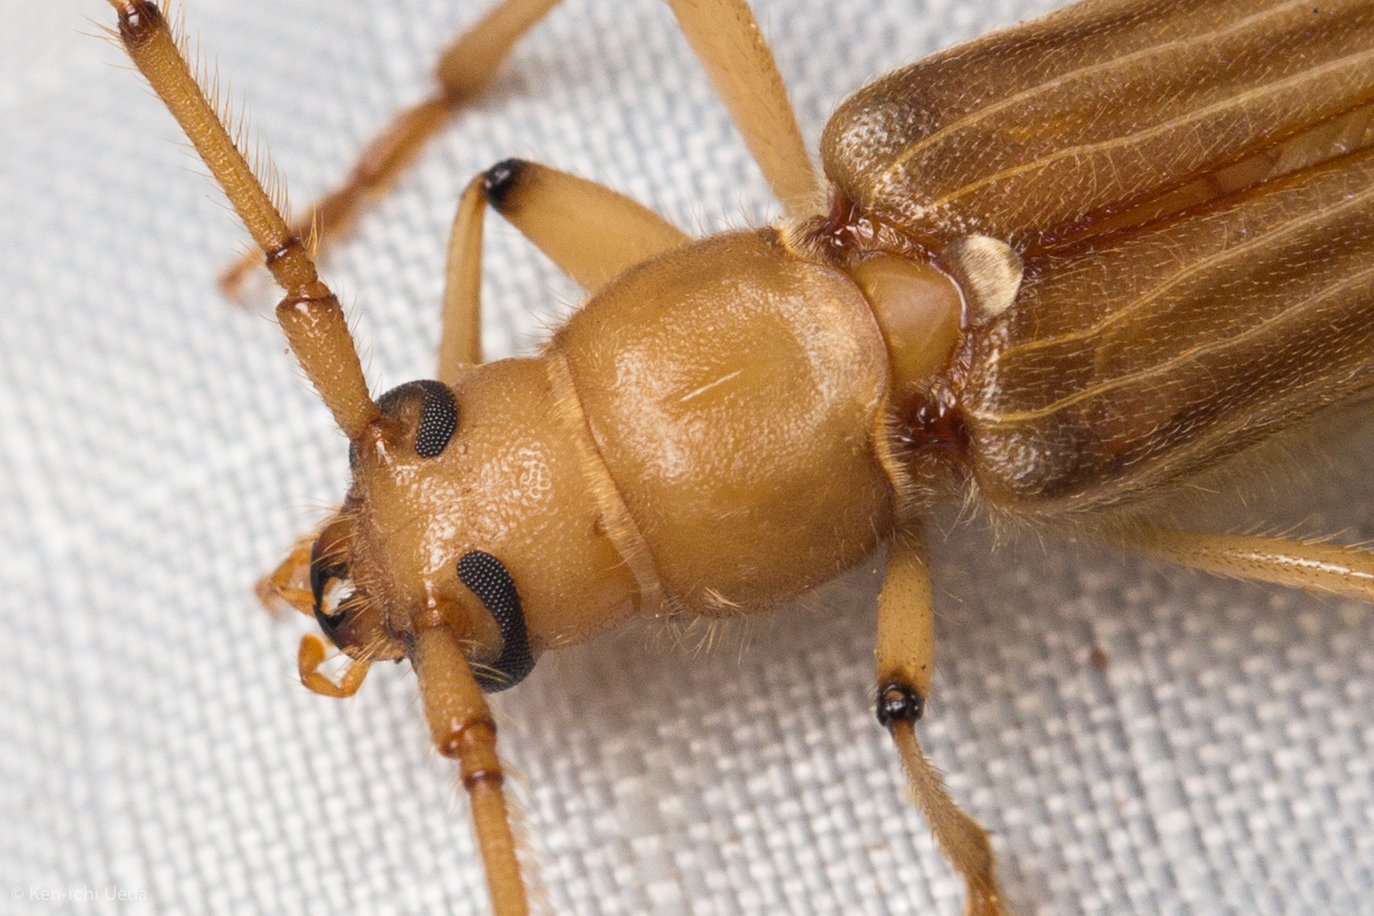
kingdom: Animalia
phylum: Arthropoda
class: Insecta
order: Coleoptera
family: Cerambycidae
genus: Malacopterus
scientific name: Malacopterus tenellus
